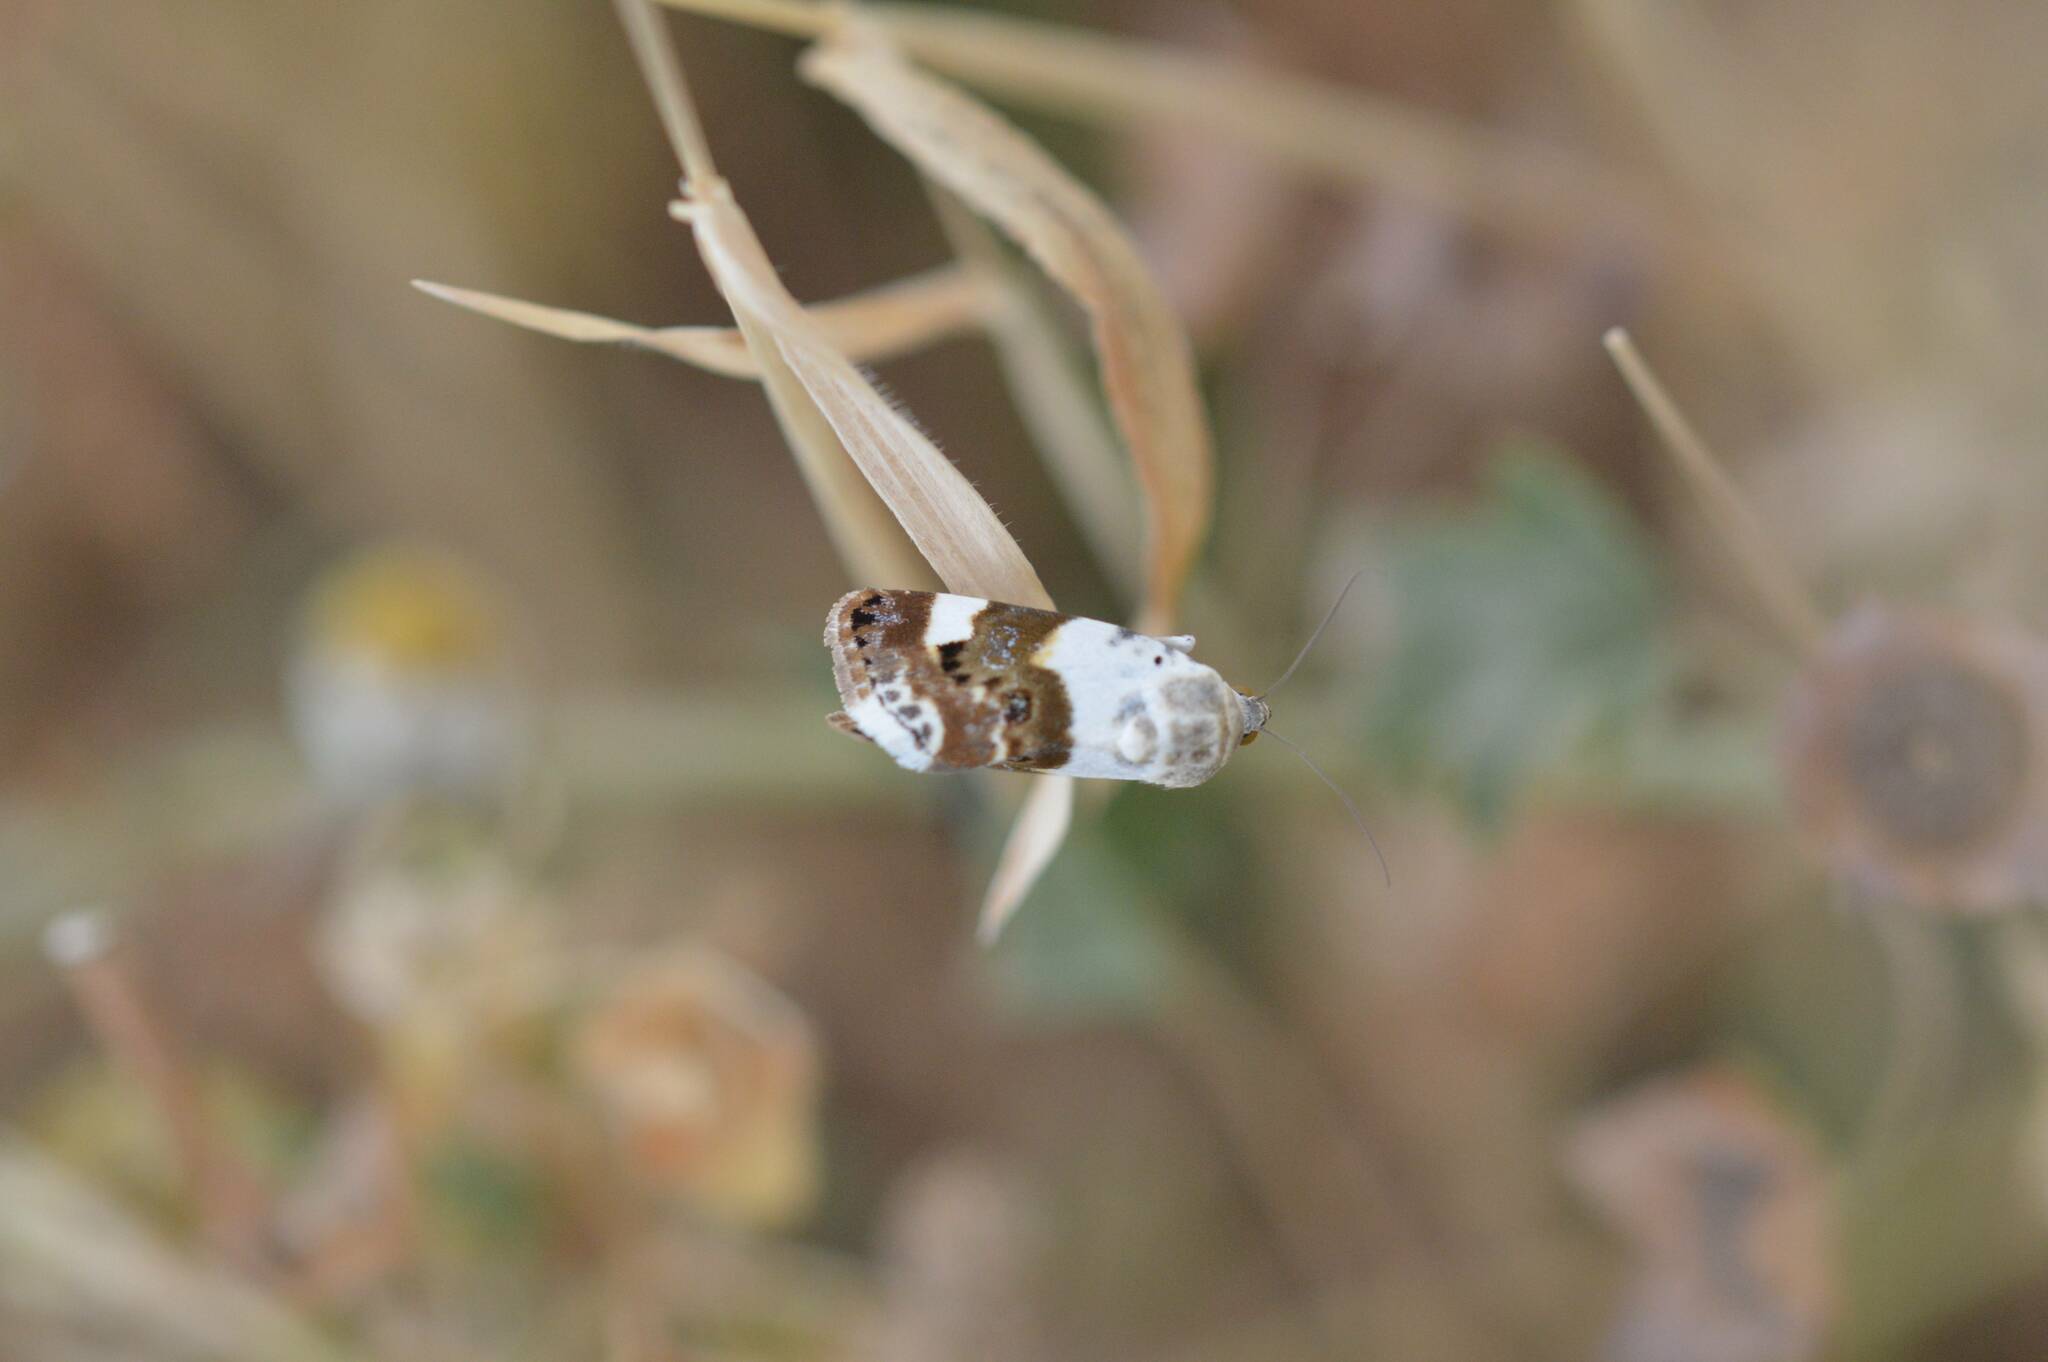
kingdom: Animalia
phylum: Arthropoda
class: Insecta
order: Lepidoptera
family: Noctuidae
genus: Acontia
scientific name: Acontia lucida
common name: Pale shoulder
